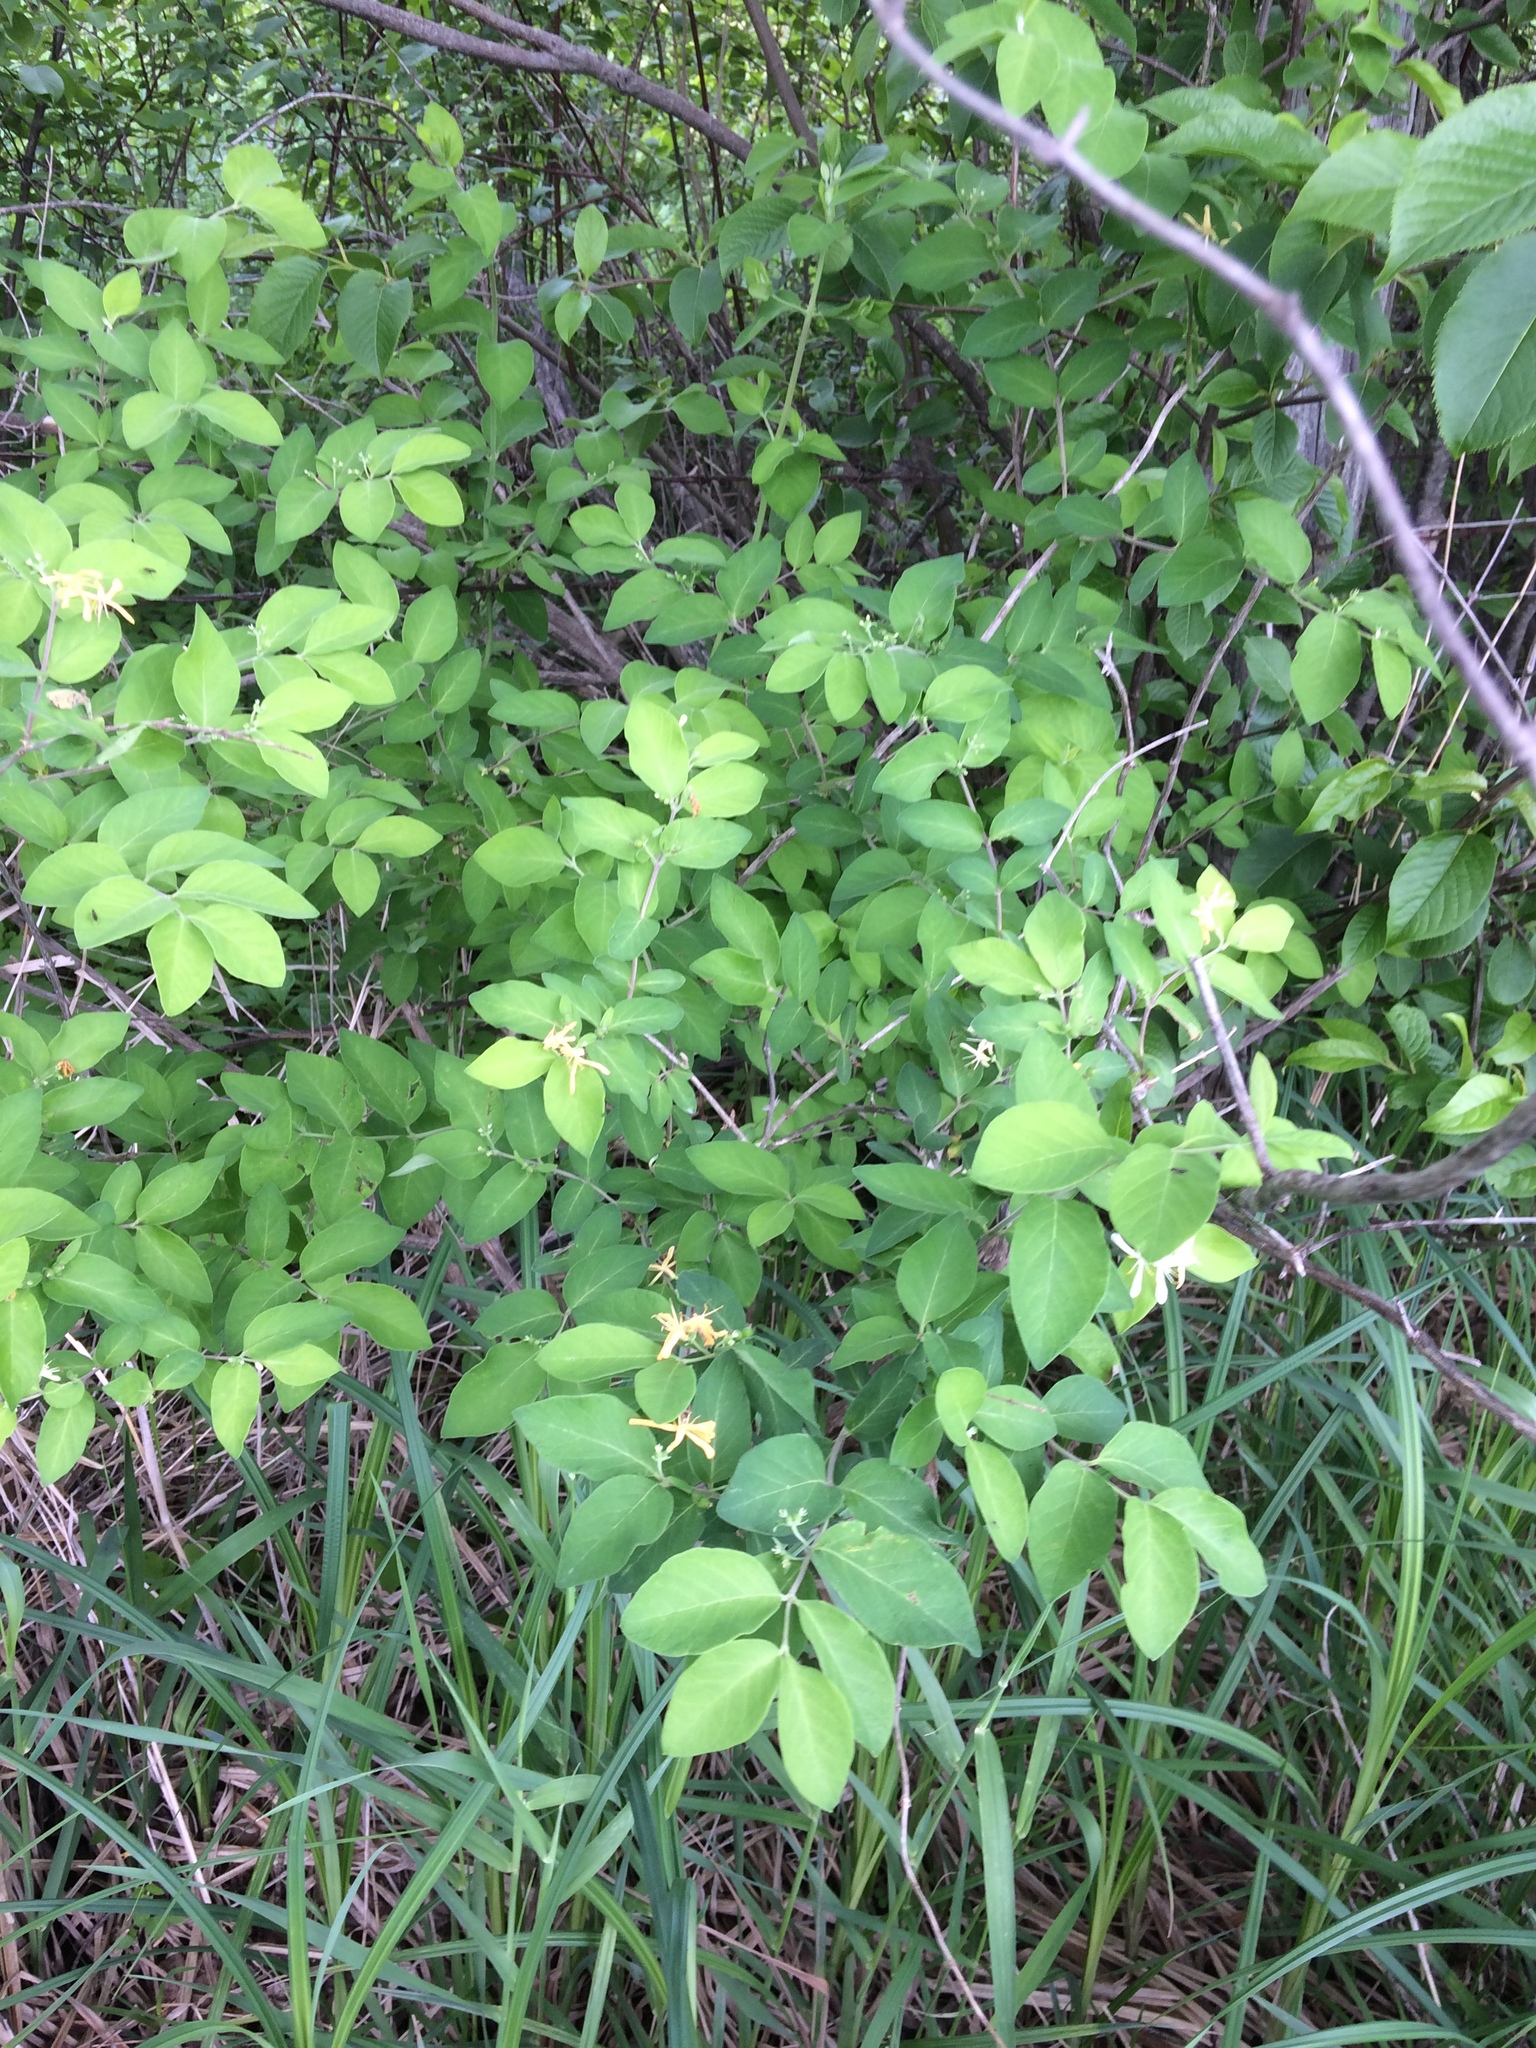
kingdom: Plantae
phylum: Tracheophyta
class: Magnoliopsida
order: Dipsacales
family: Caprifoliaceae
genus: Lonicera
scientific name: Lonicera morrowii
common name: Morrow's honeysuckle
